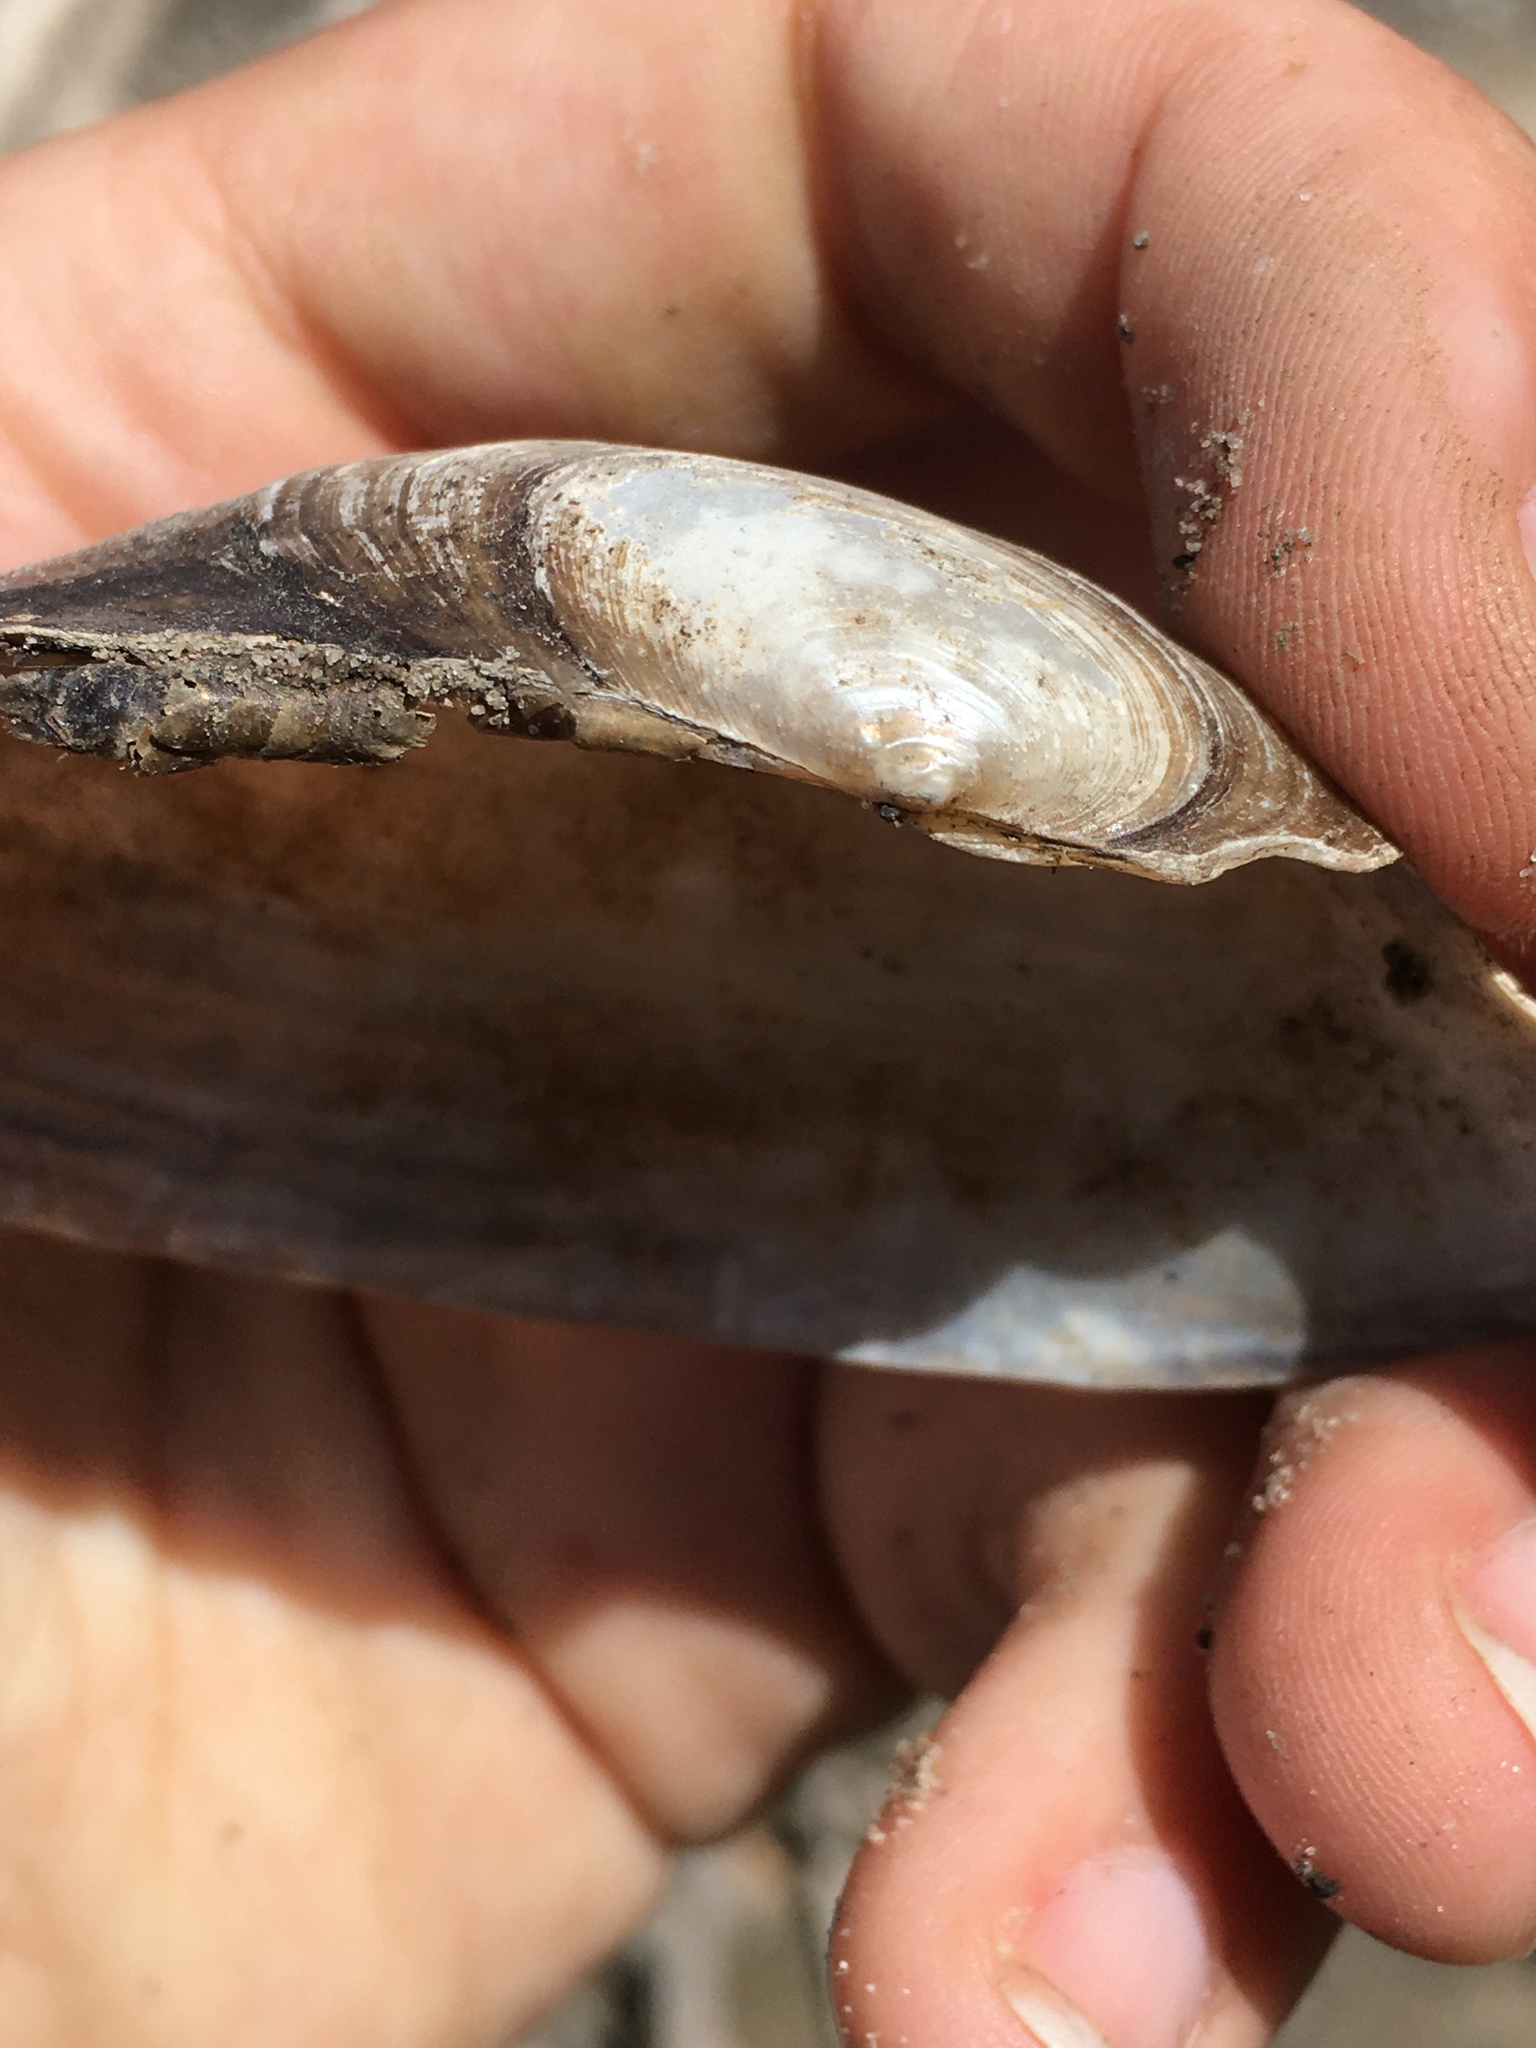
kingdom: Animalia
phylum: Mollusca
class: Bivalvia
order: Unionida
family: Unionidae
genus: Anodontoides
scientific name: Anodontoides ferussacianus
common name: Cylindrical papershell
